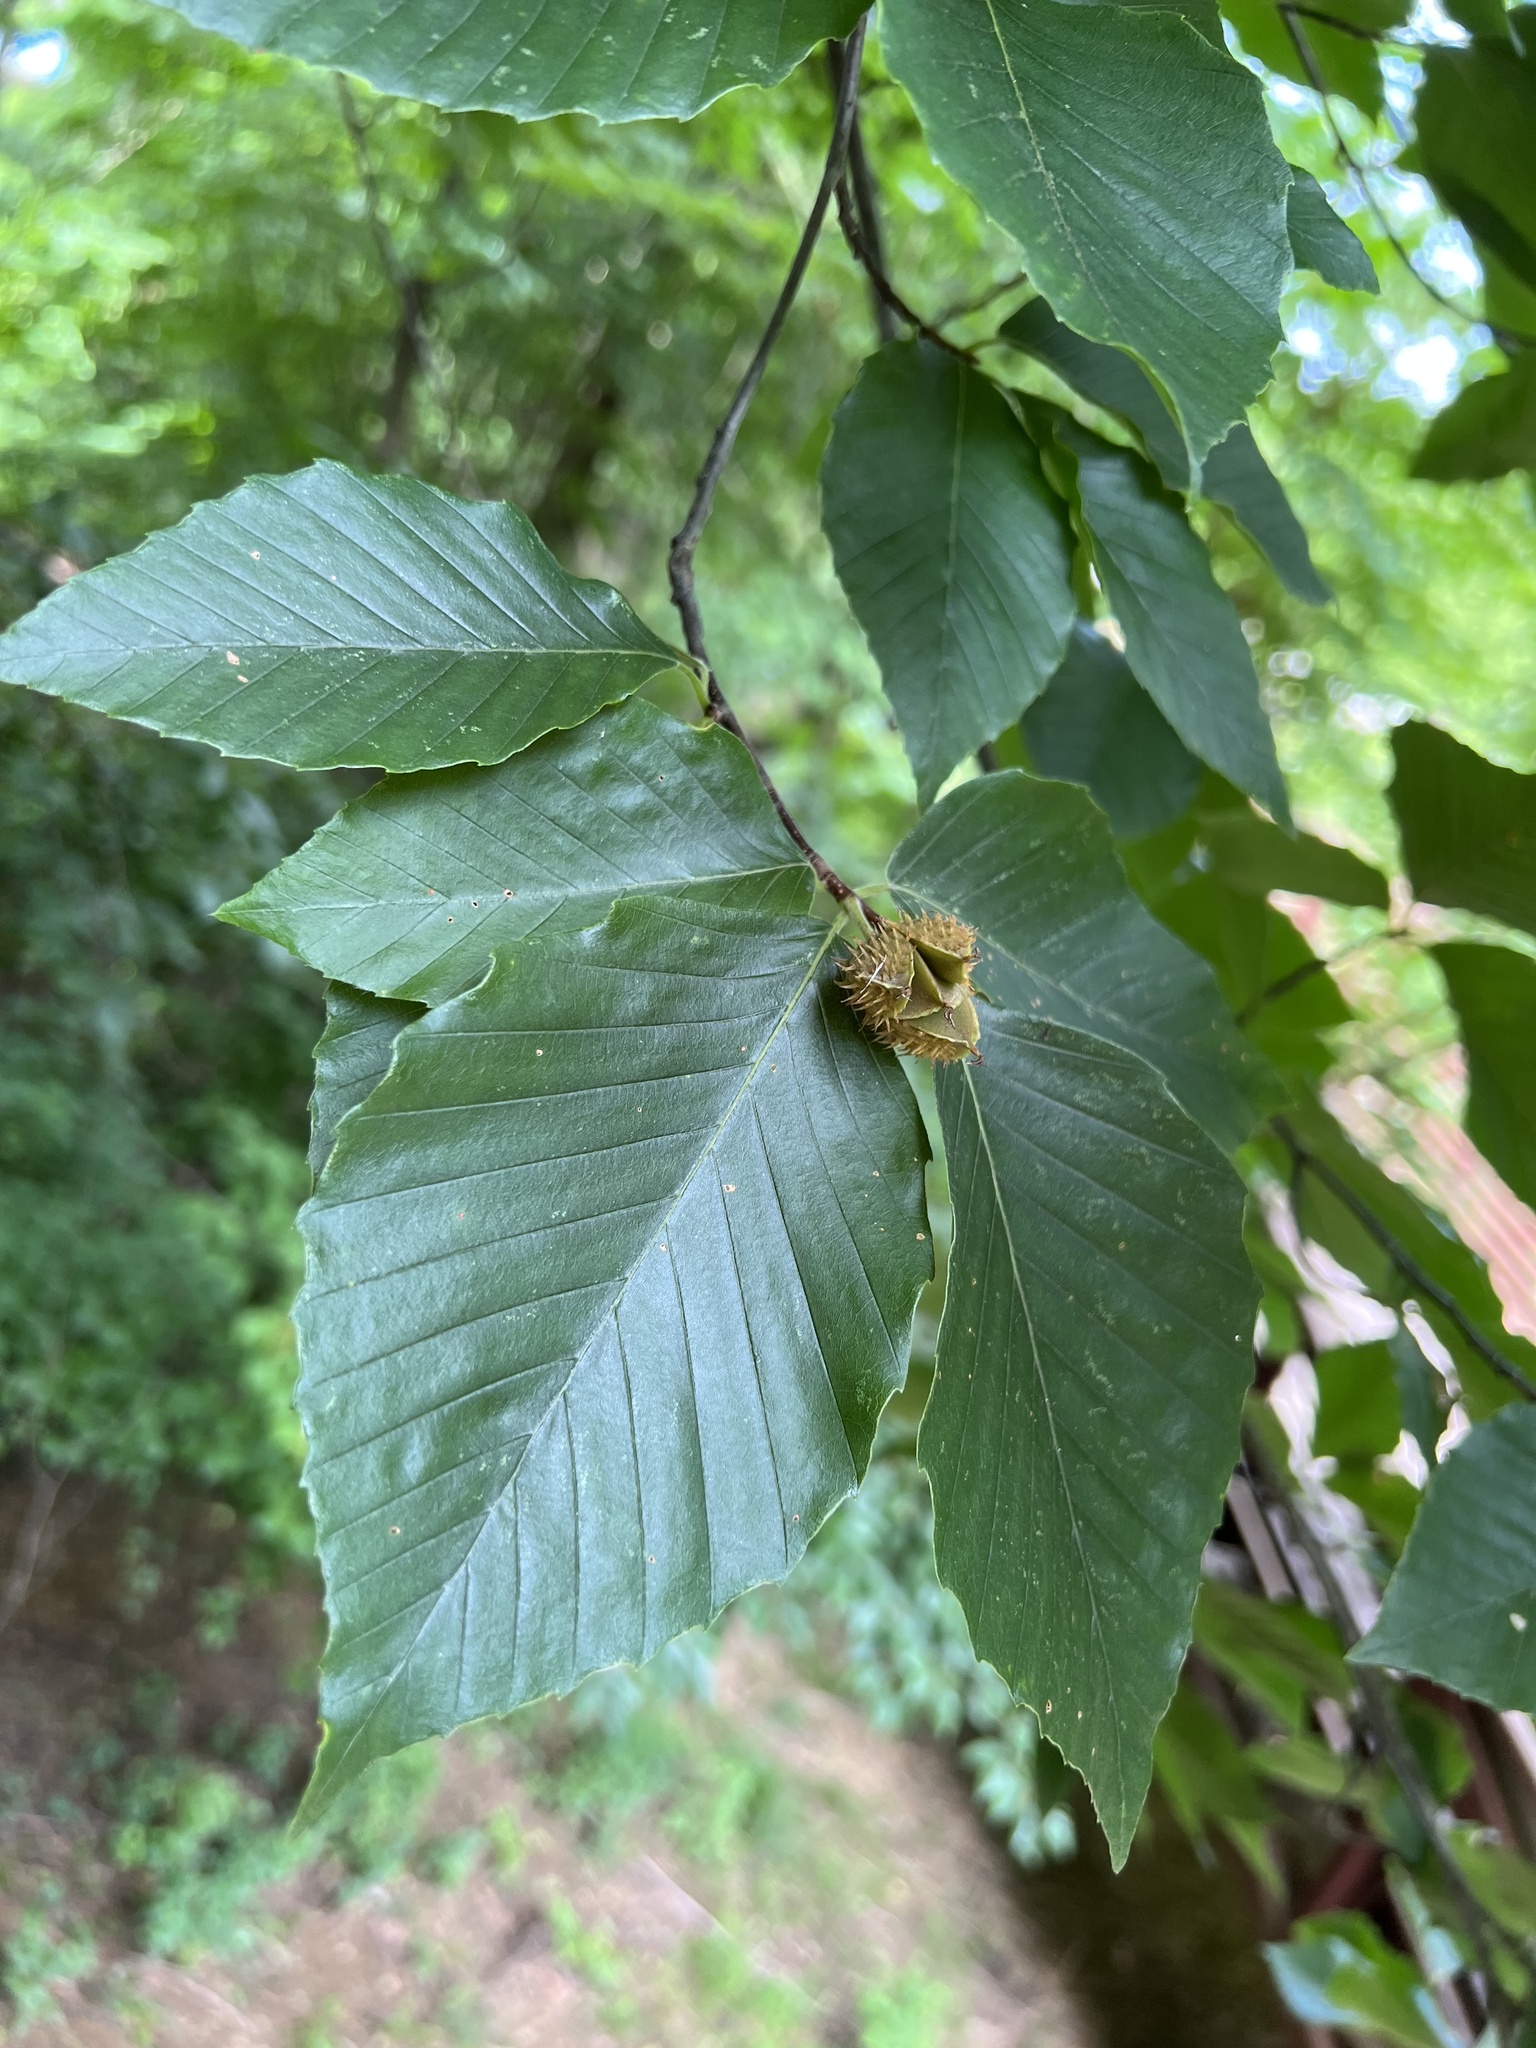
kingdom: Plantae
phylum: Tracheophyta
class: Magnoliopsida
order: Fagales
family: Fagaceae
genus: Fagus
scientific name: Fagus grandifolia
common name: American beech
